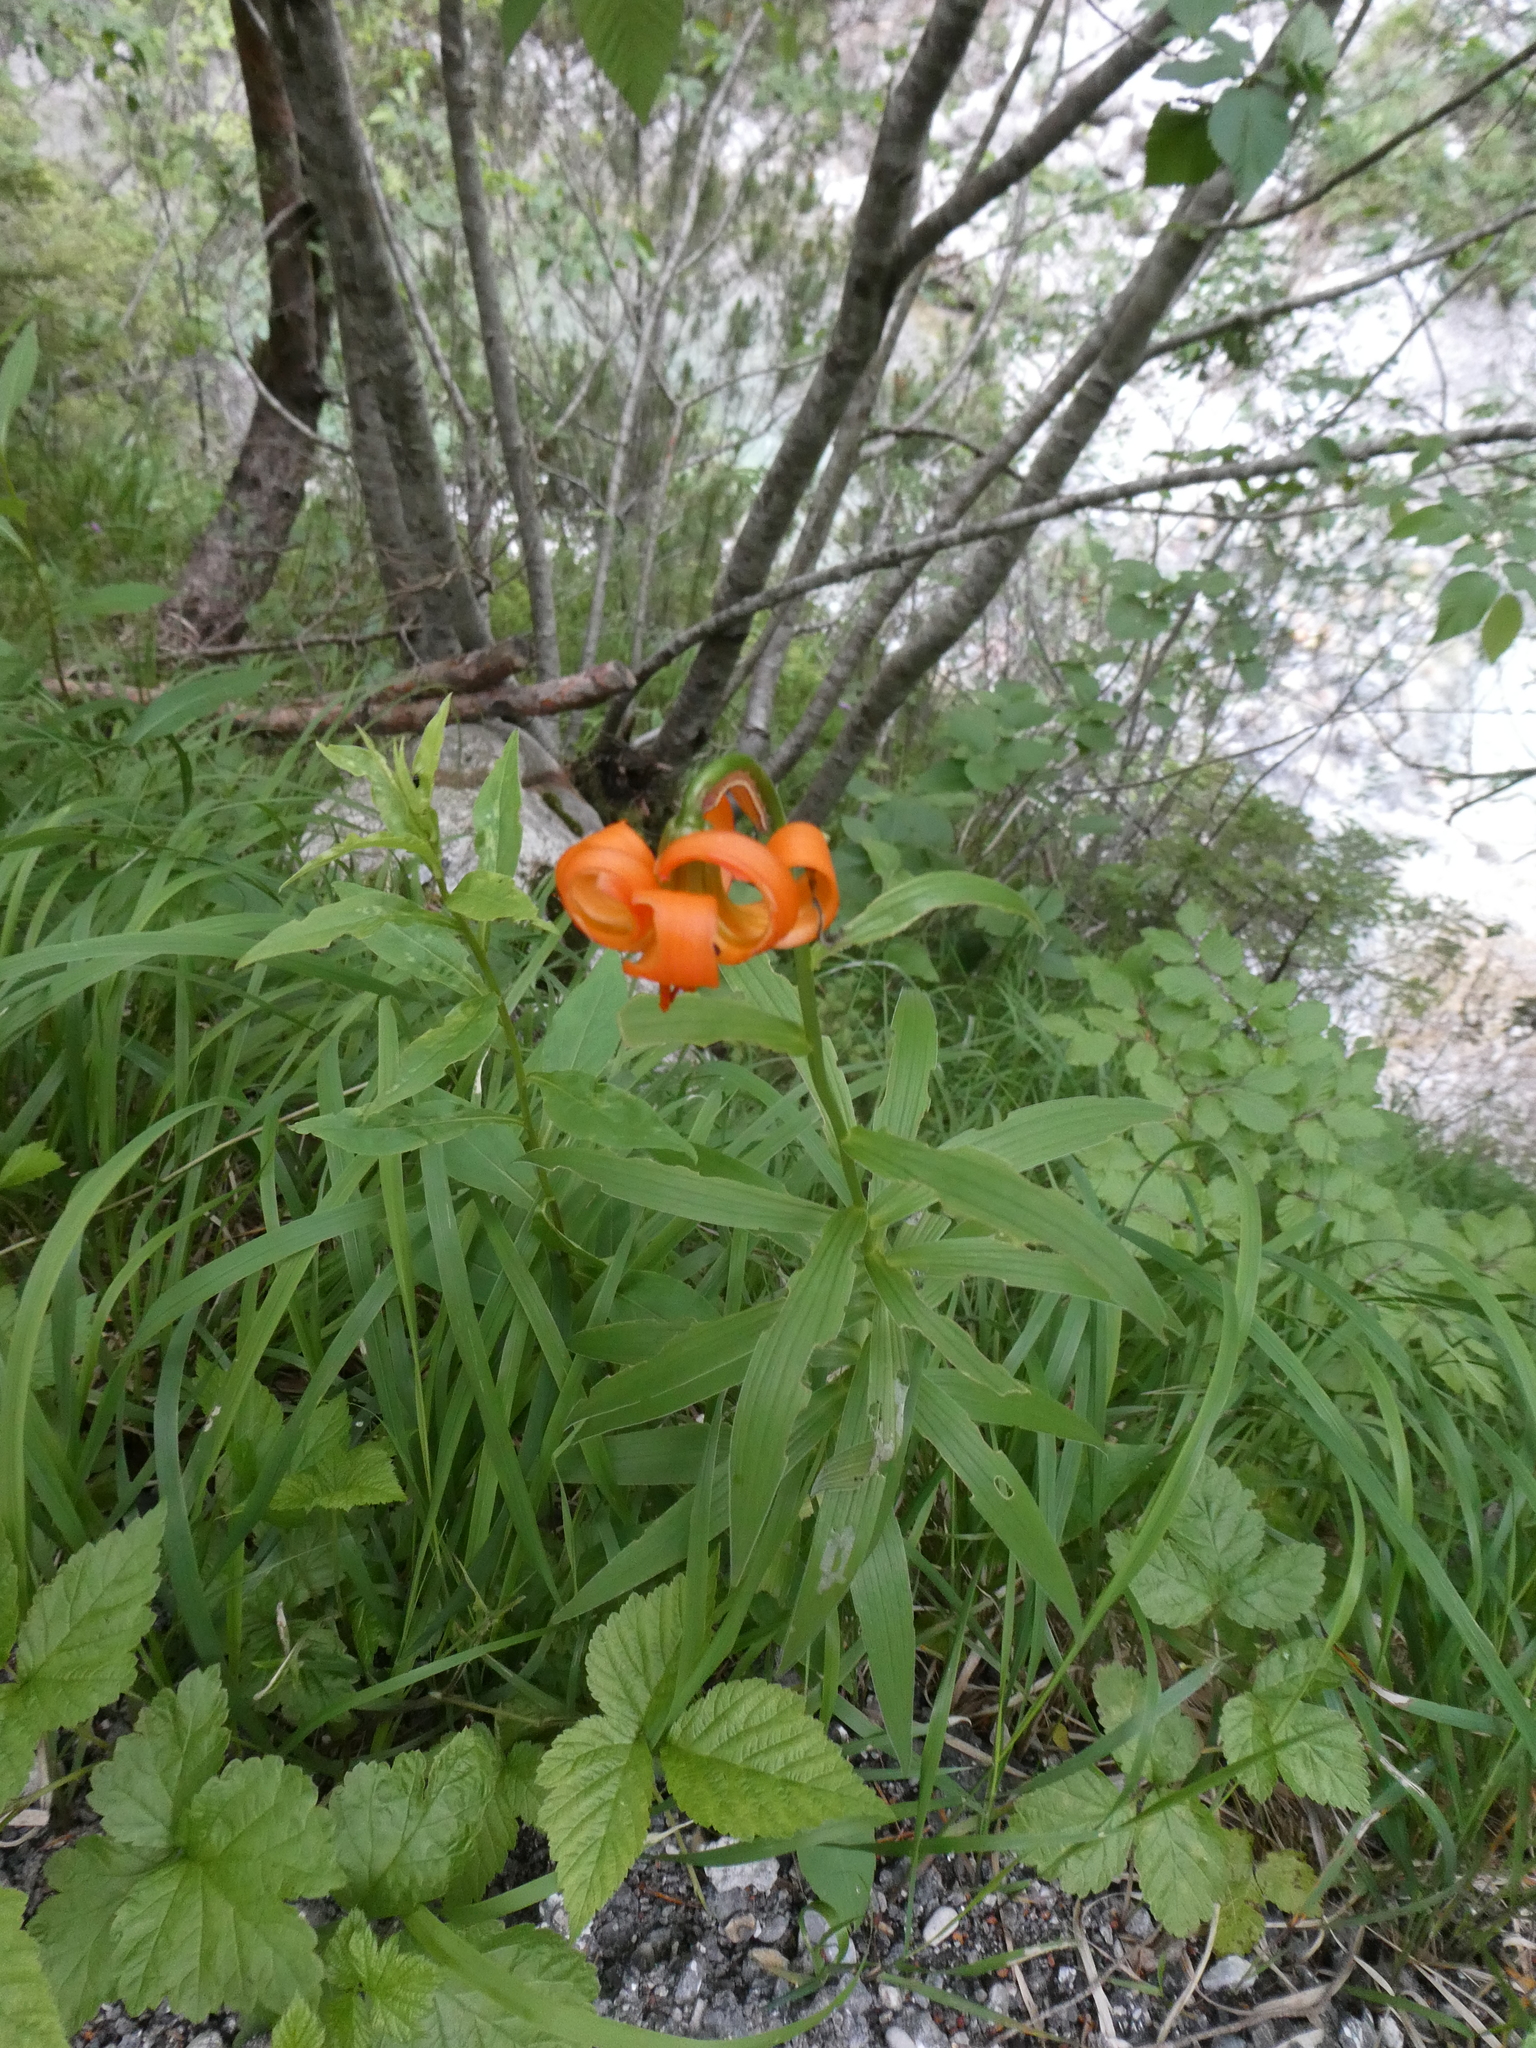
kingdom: Plantae
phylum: Tracheophyta
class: Liliopsida
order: Liliales
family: Liliaceae
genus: Lilium
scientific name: Lilium carniolicum
